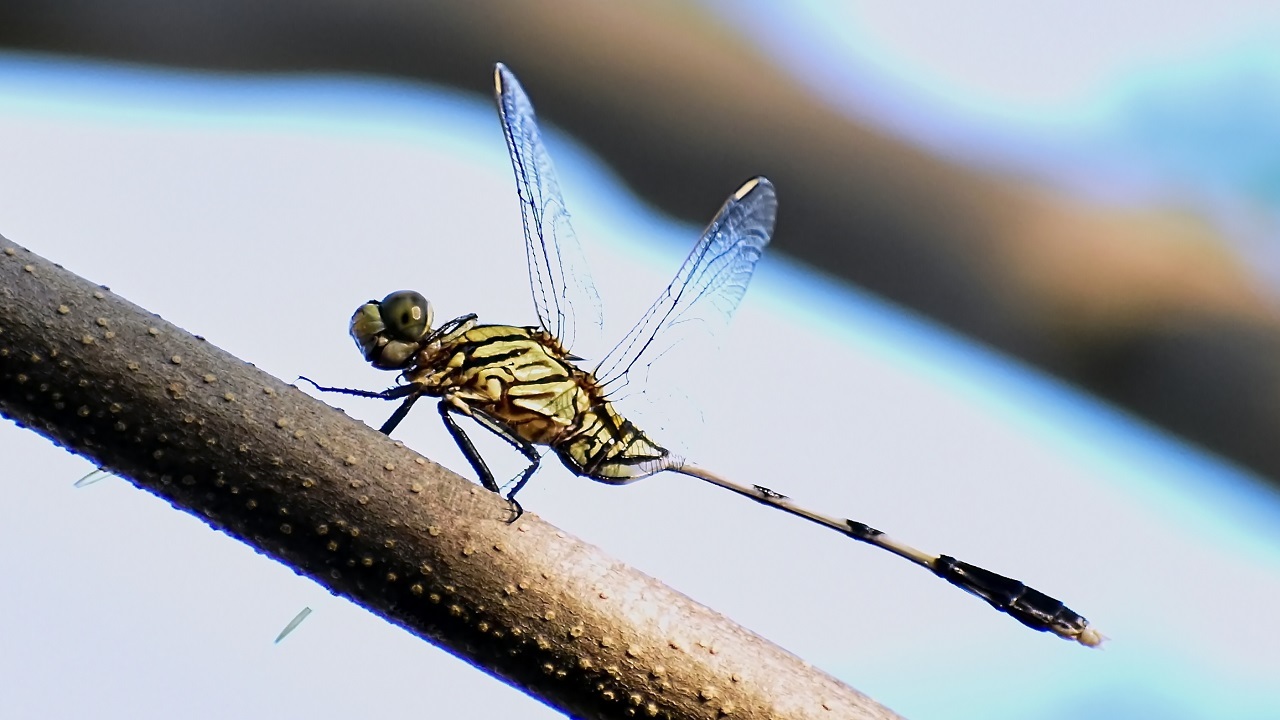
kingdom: Animalia
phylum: Arthropoda
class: Insecta
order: Odonata
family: Libellulidae
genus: Orthetrum
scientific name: Orthetrum sabina
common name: Slender skimmer
